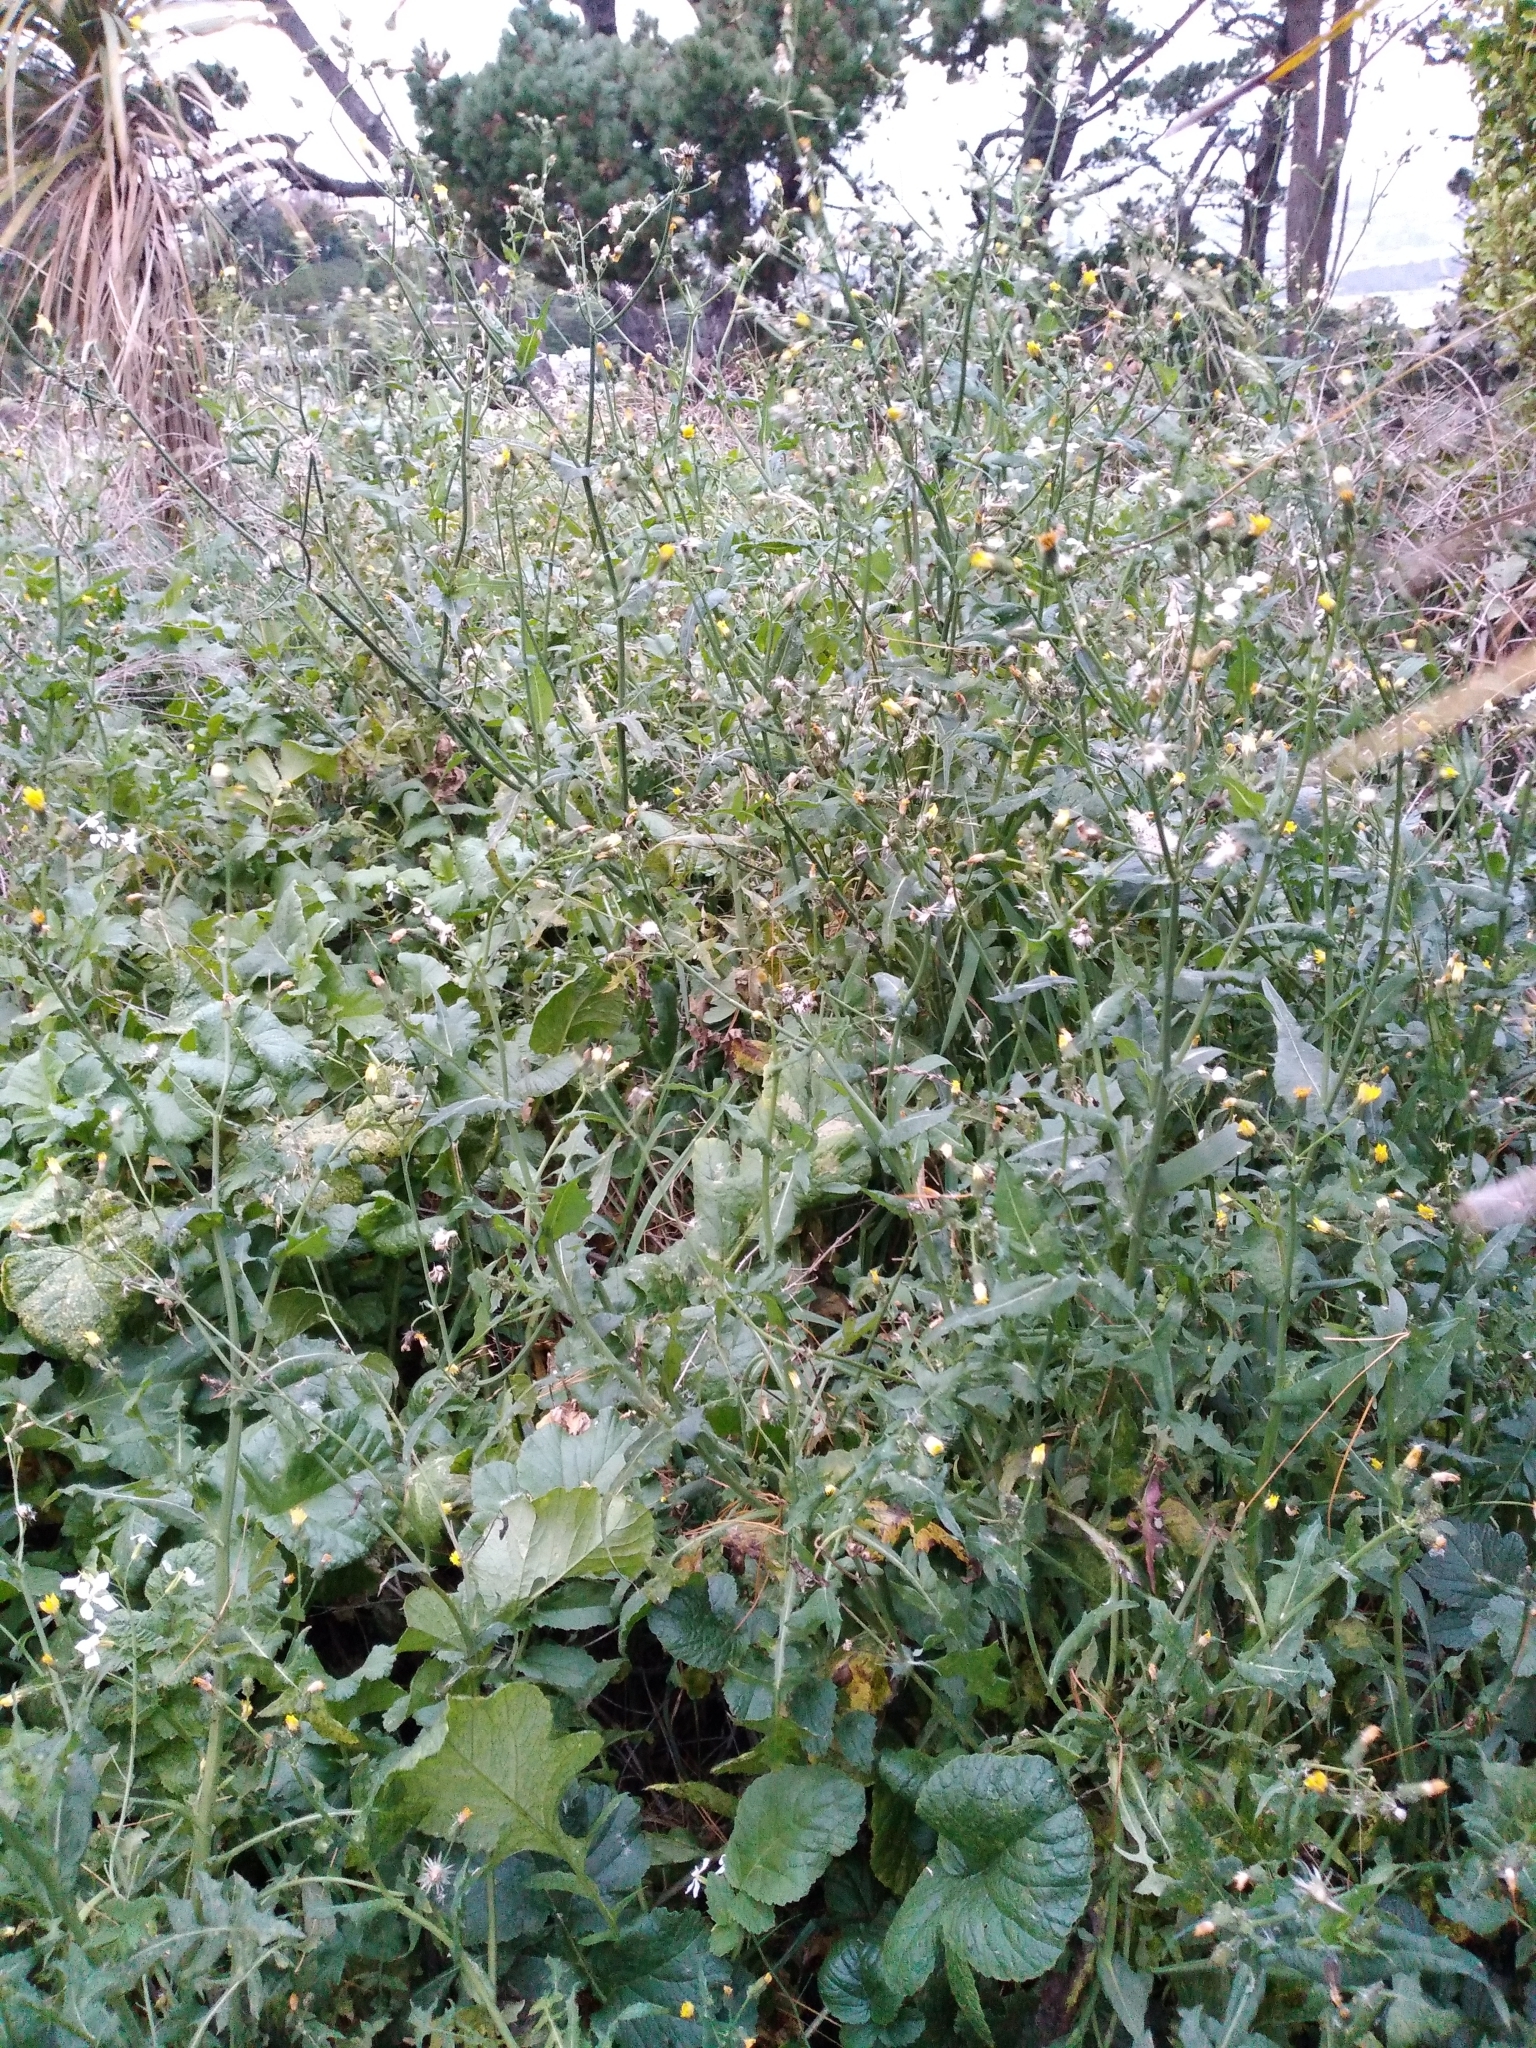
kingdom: Plantae
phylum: Tracheophyta
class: Magnoliopsida
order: Asterales
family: Asteraceae
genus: Sonchus
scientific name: Sonchus asper
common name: Prickly sow-thistle
